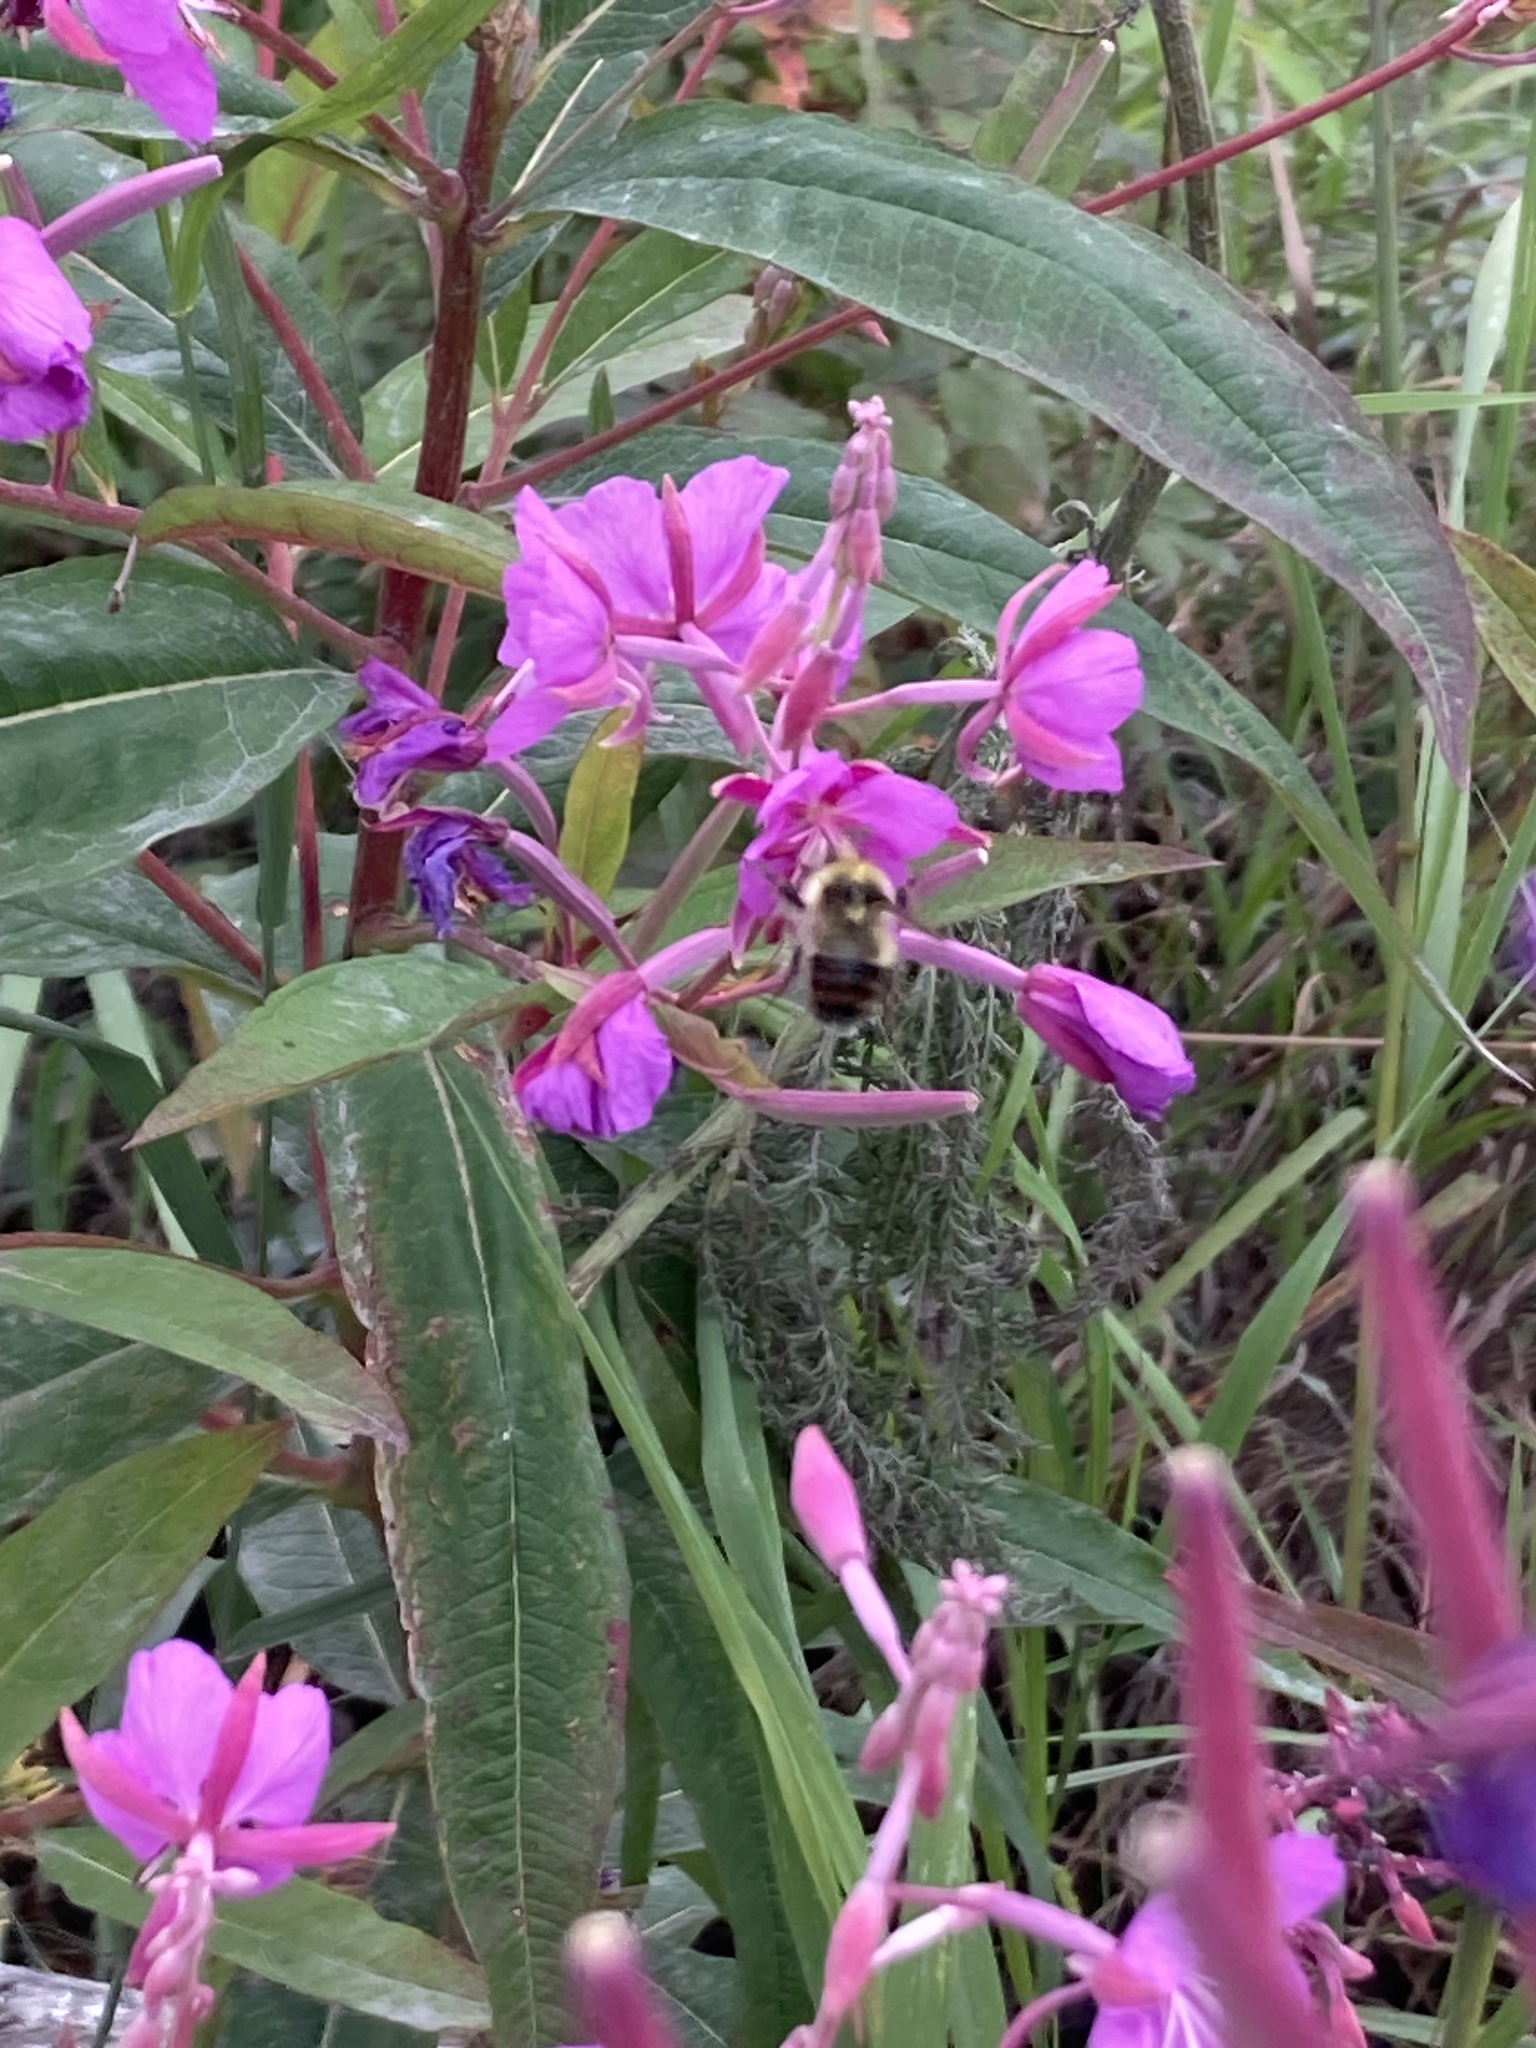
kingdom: Animalia
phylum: Arthropoda
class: Insecta
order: Hymenoptera
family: Apidae
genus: Bombus
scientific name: Bombus flavifrons
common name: Yellow head bumble bee
